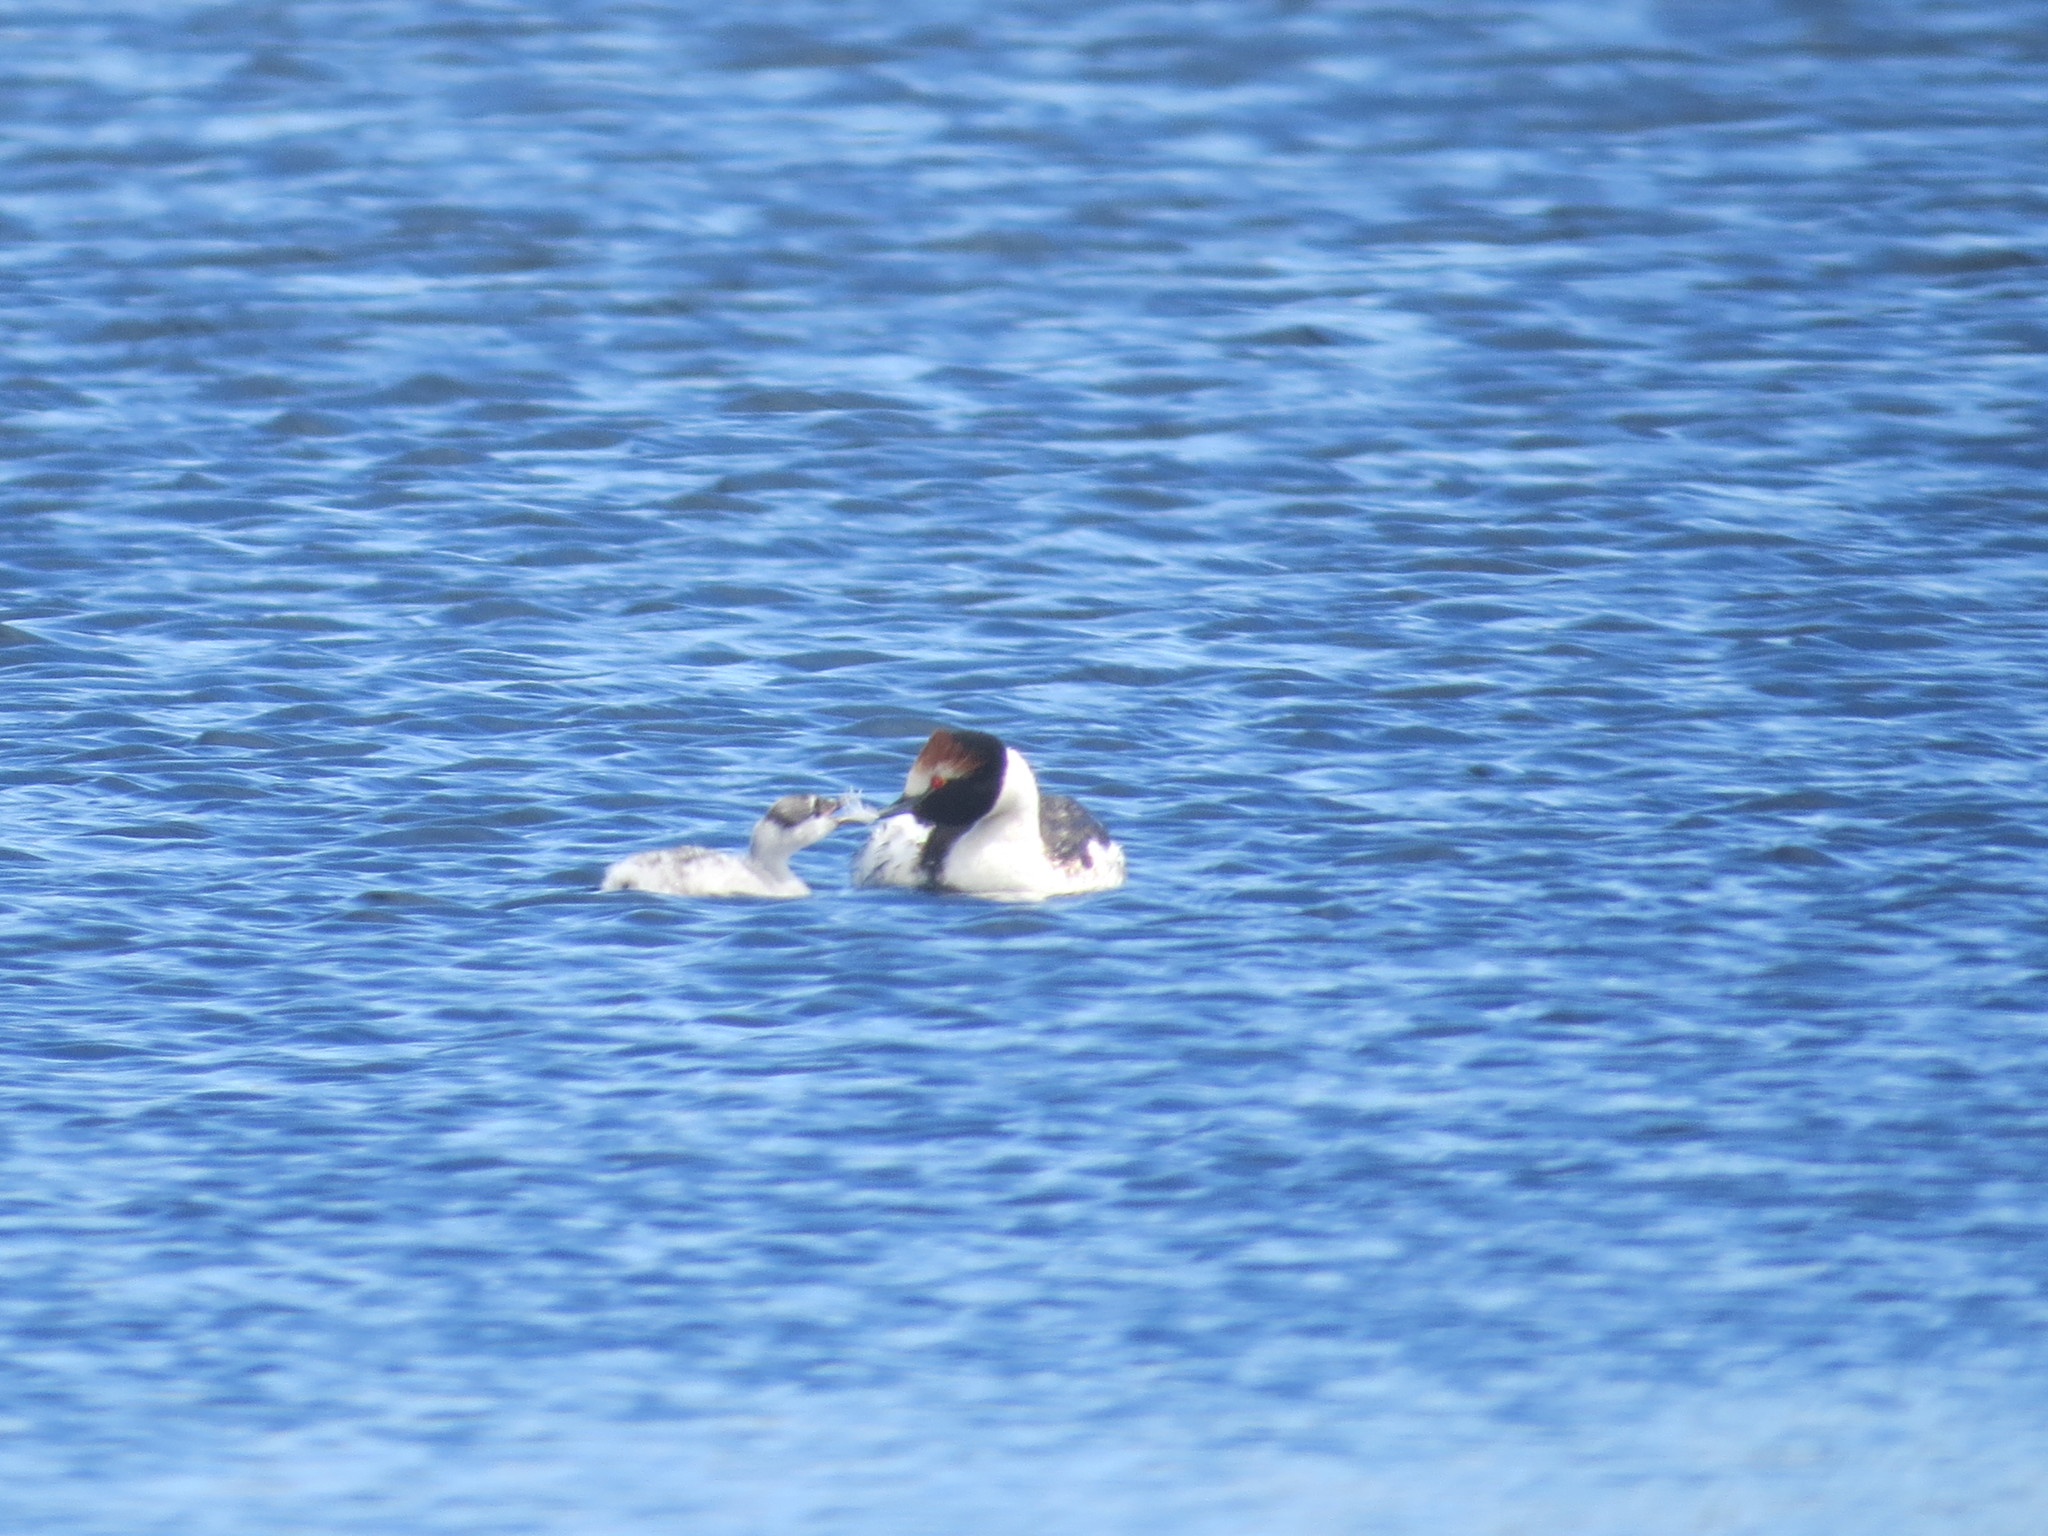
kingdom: Animalia
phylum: Chordata
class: Aves
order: Podicipediformes
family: Podicipedidae
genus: Podiceps
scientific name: Podiceps gallardoi
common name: Hooded grebe
